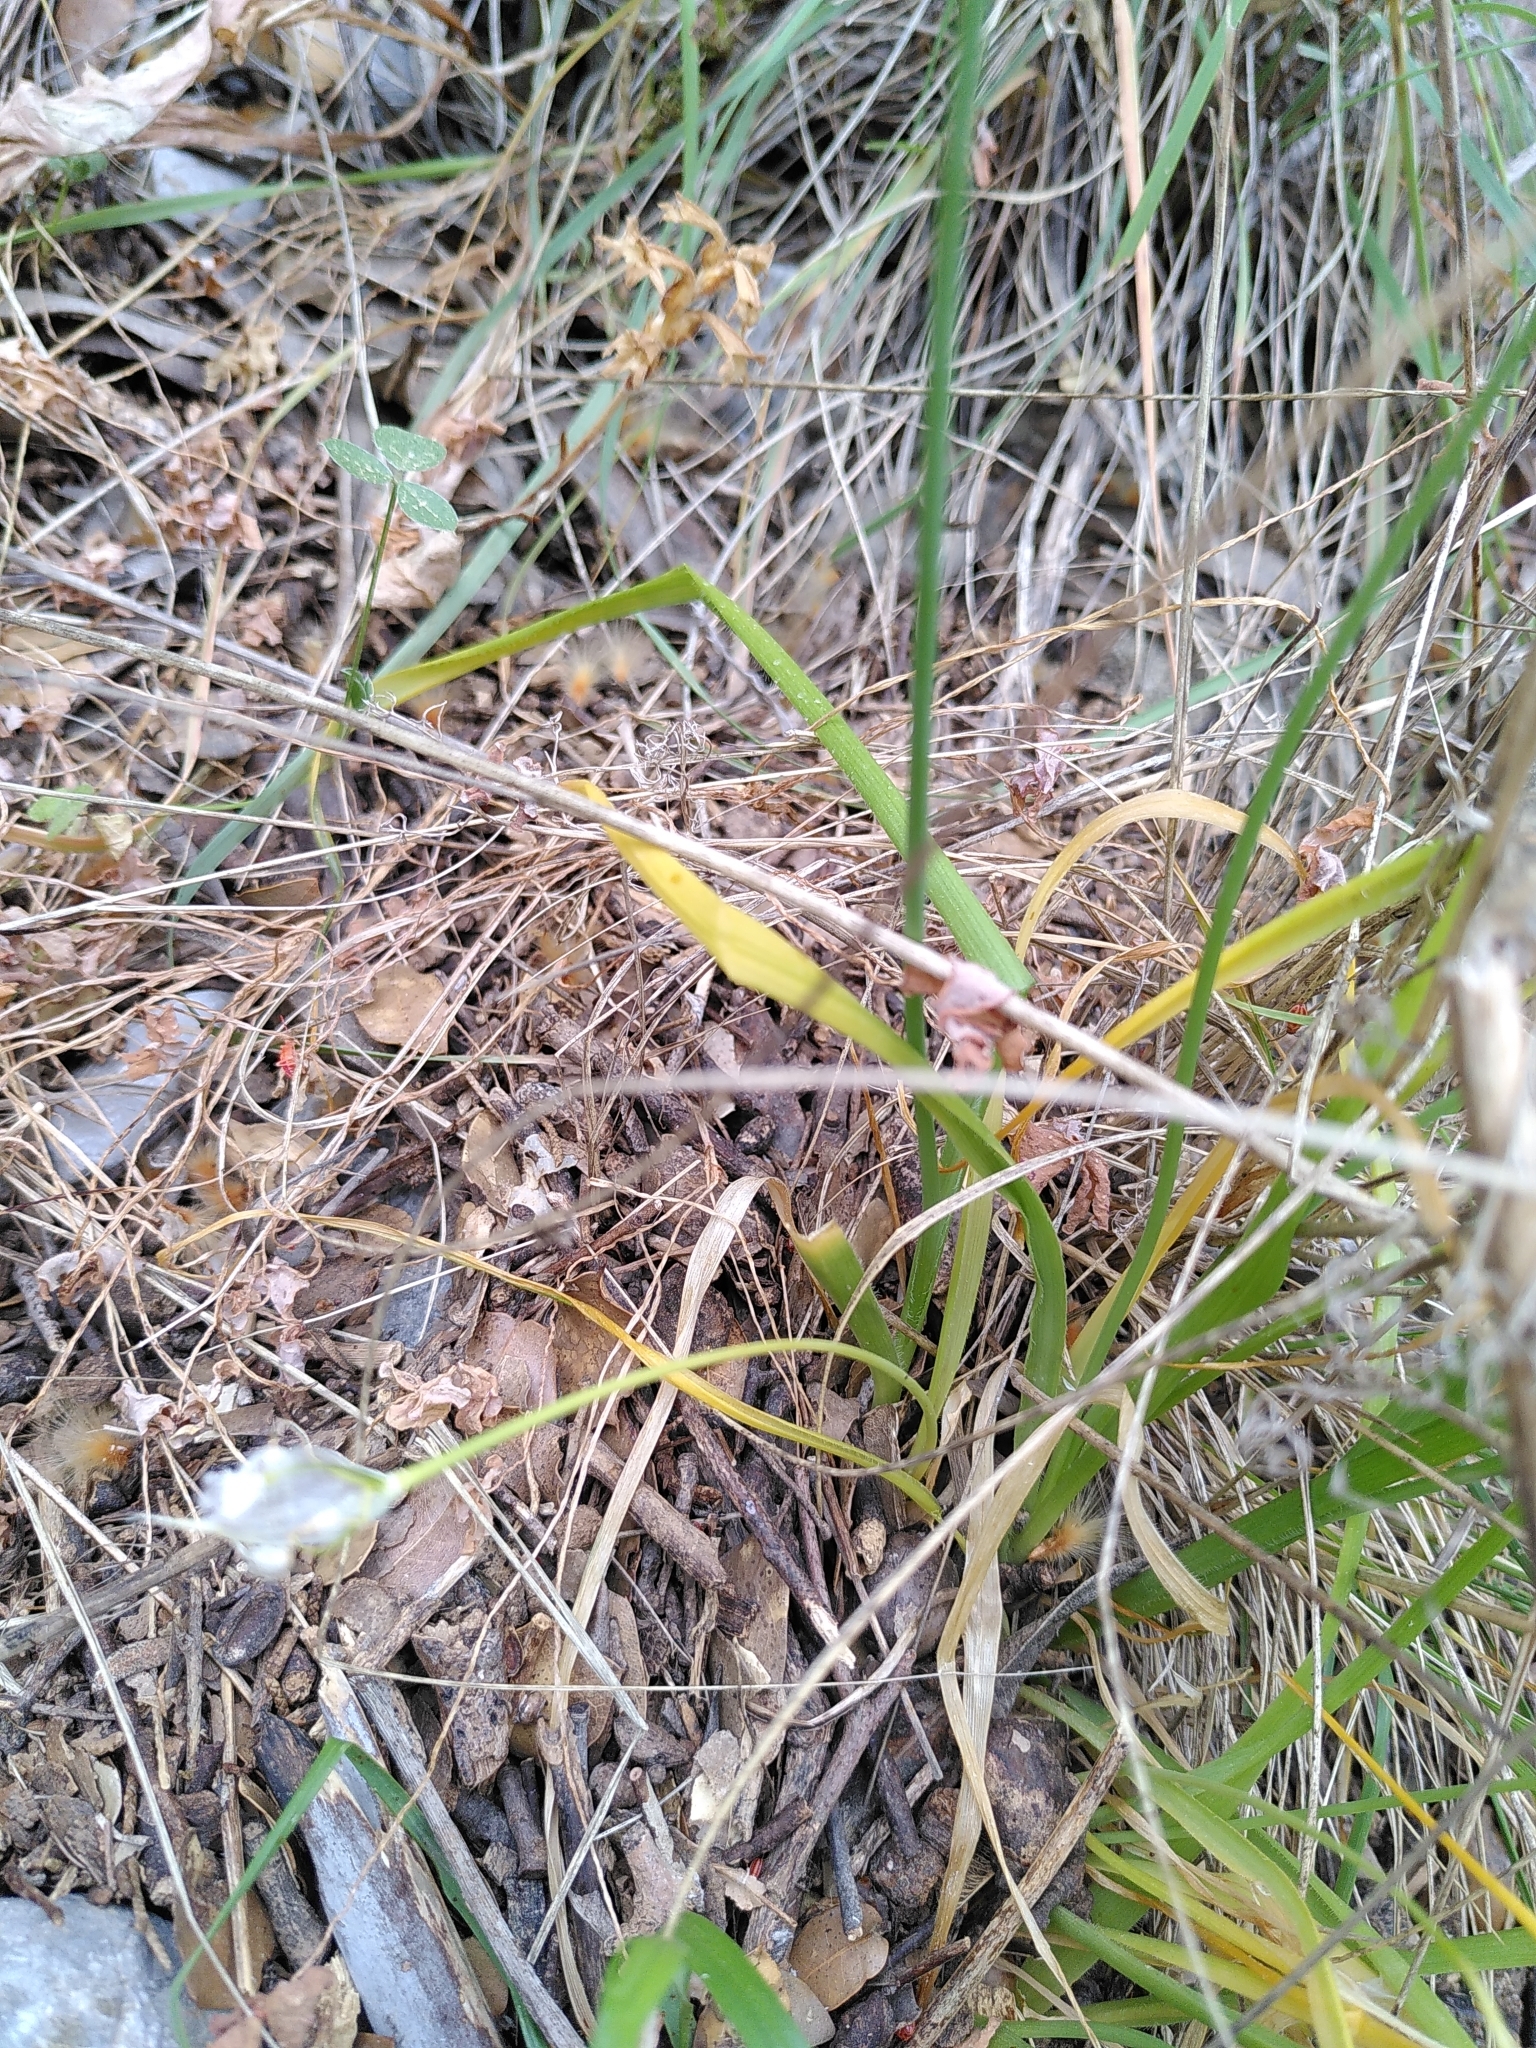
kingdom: Plantae
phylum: Tracheophyta
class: Liliopsida
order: Asparagales
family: Amaryllidaceae
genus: Allium
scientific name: Allium subhirsutum
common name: Hairy garlic
